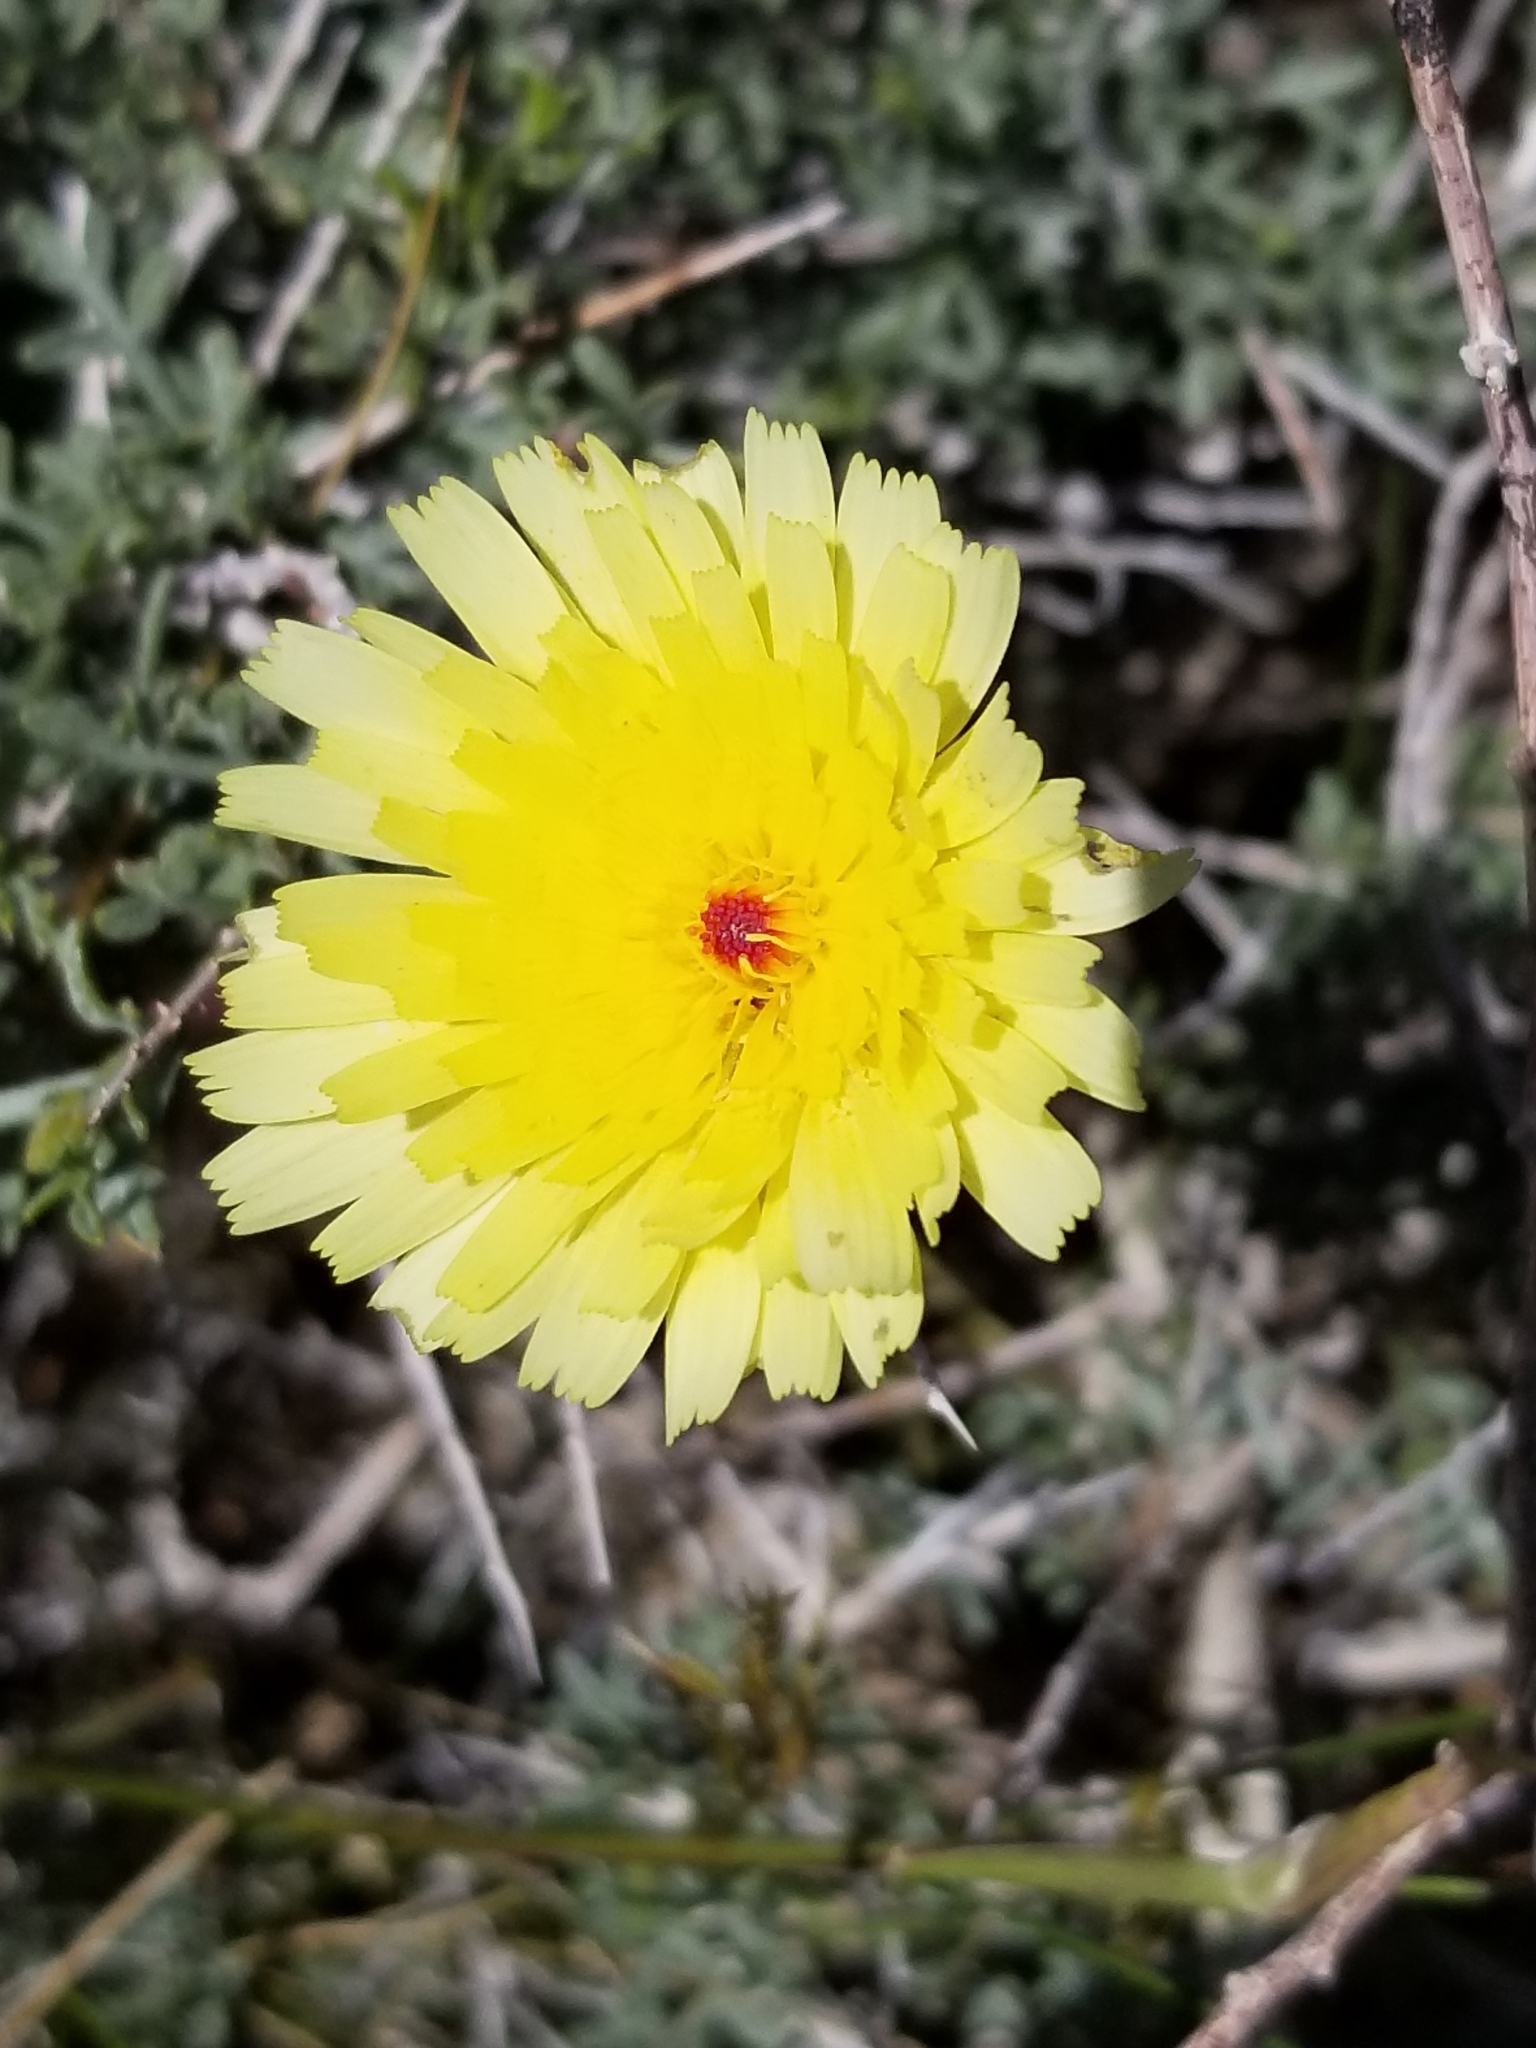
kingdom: Plantae
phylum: Tracheophyta
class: Magnoliopsida
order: Asterales
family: Asteraceae
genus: Malacothrix
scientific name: Malacothrix glabrata
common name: Smooth desert-dandelion
